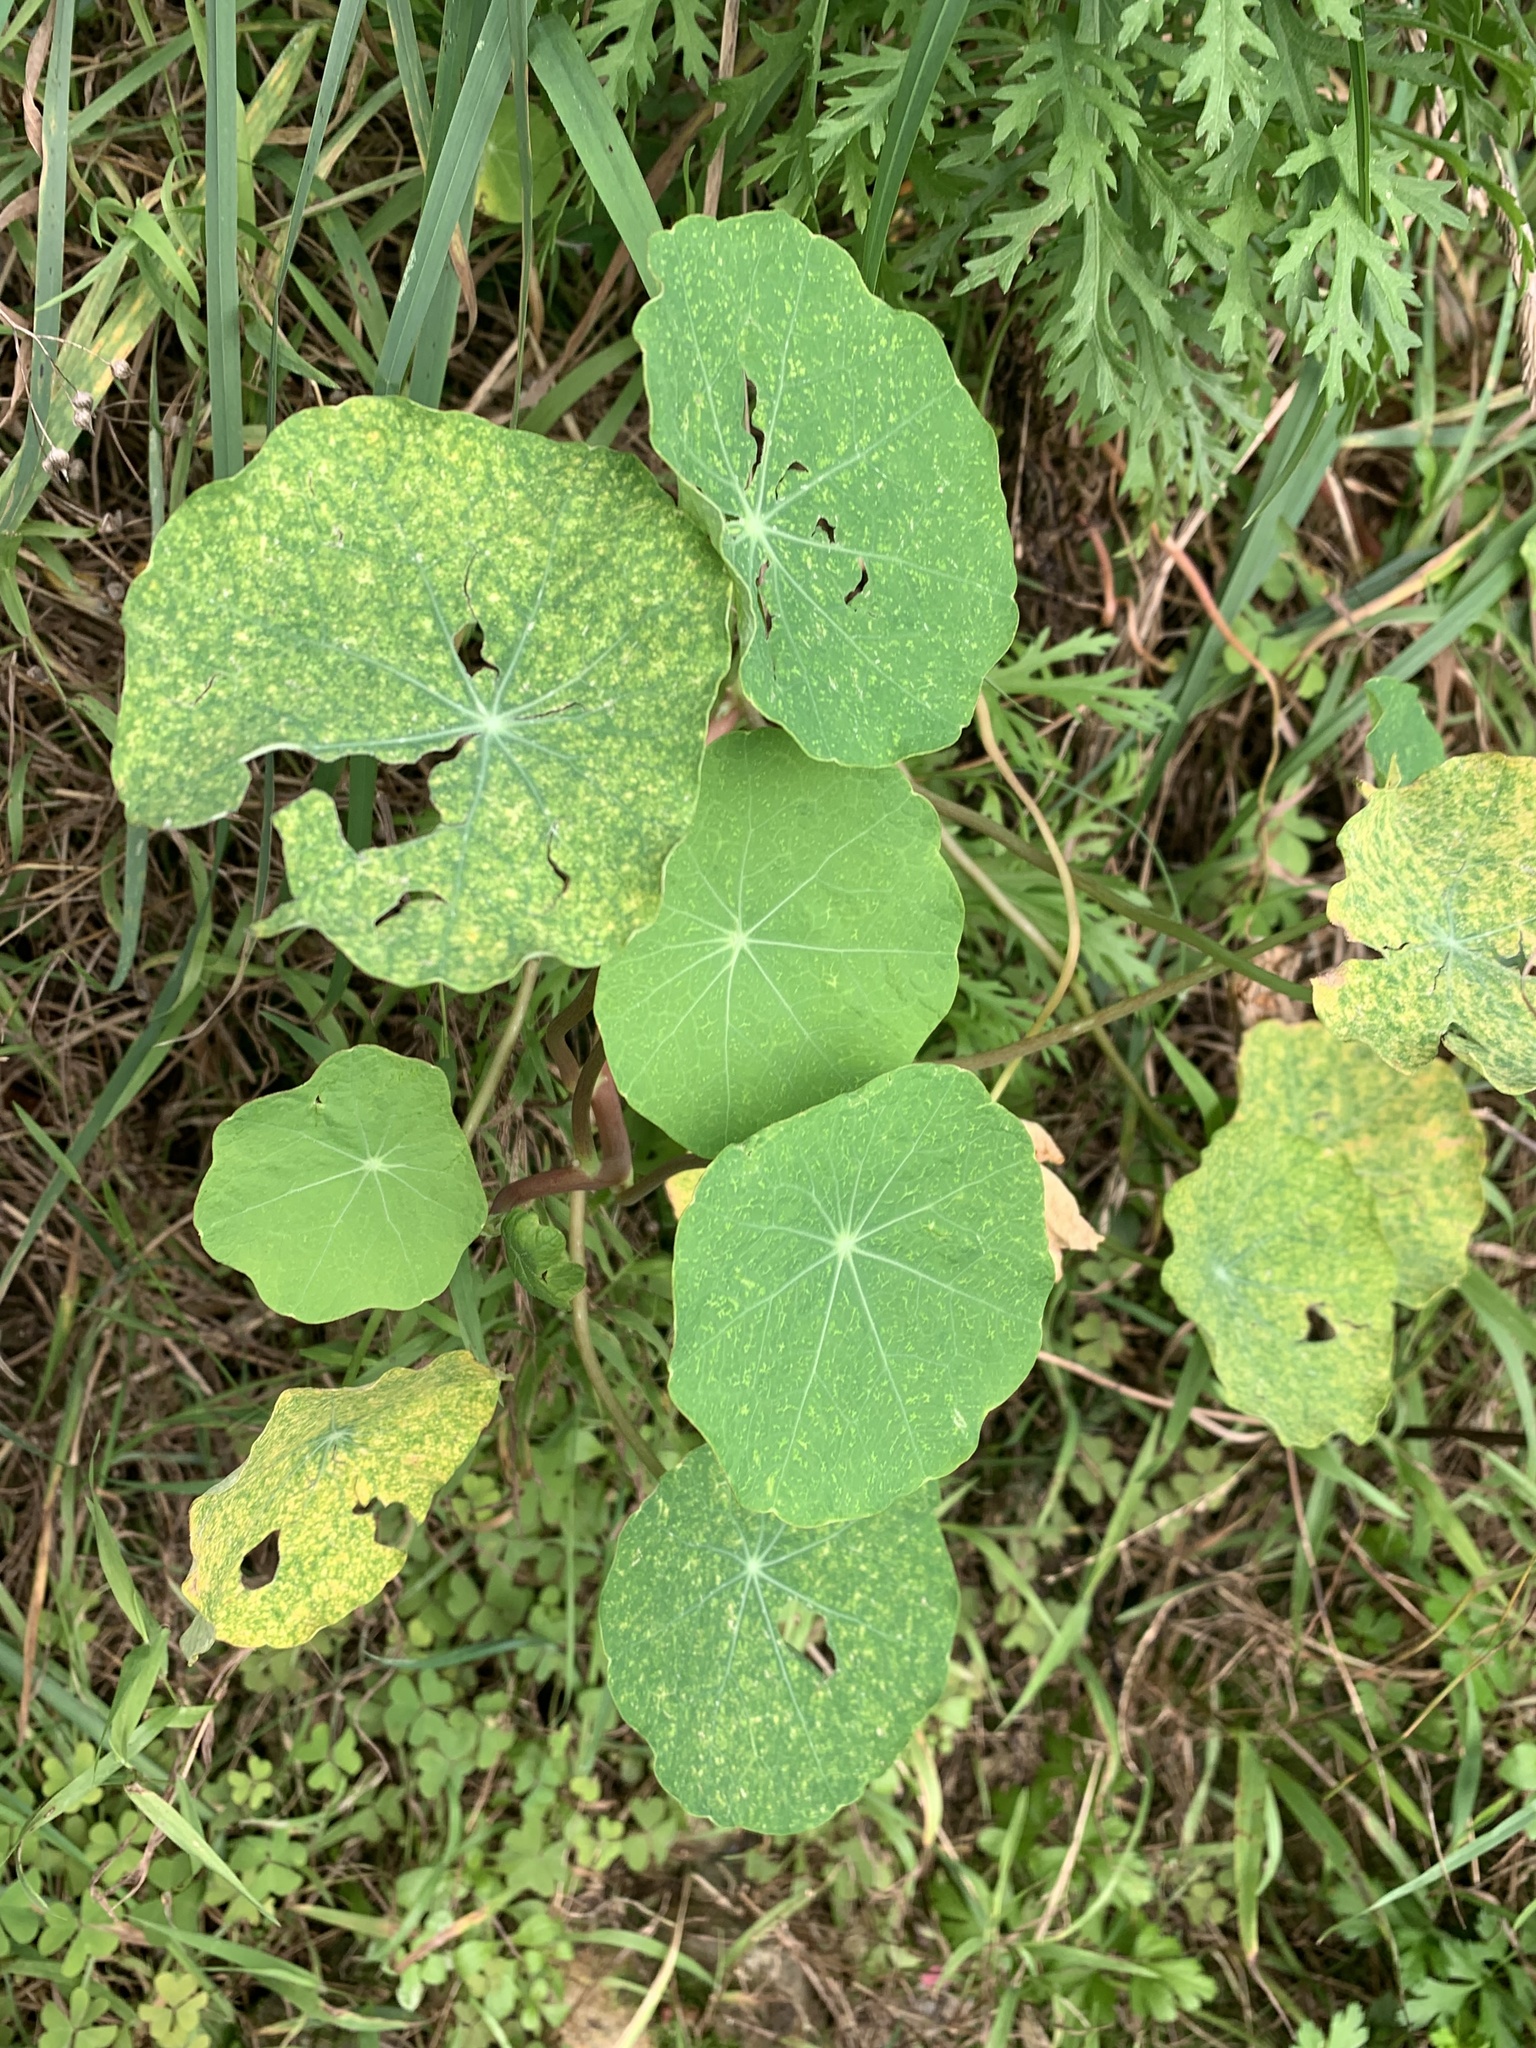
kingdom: Plantae
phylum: Tracheophyta
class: Magnoliopsida
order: Brassicales
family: Tropaeolaceae
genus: Tropaeolum
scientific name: Tropaeolum majus
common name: Nasturtium
